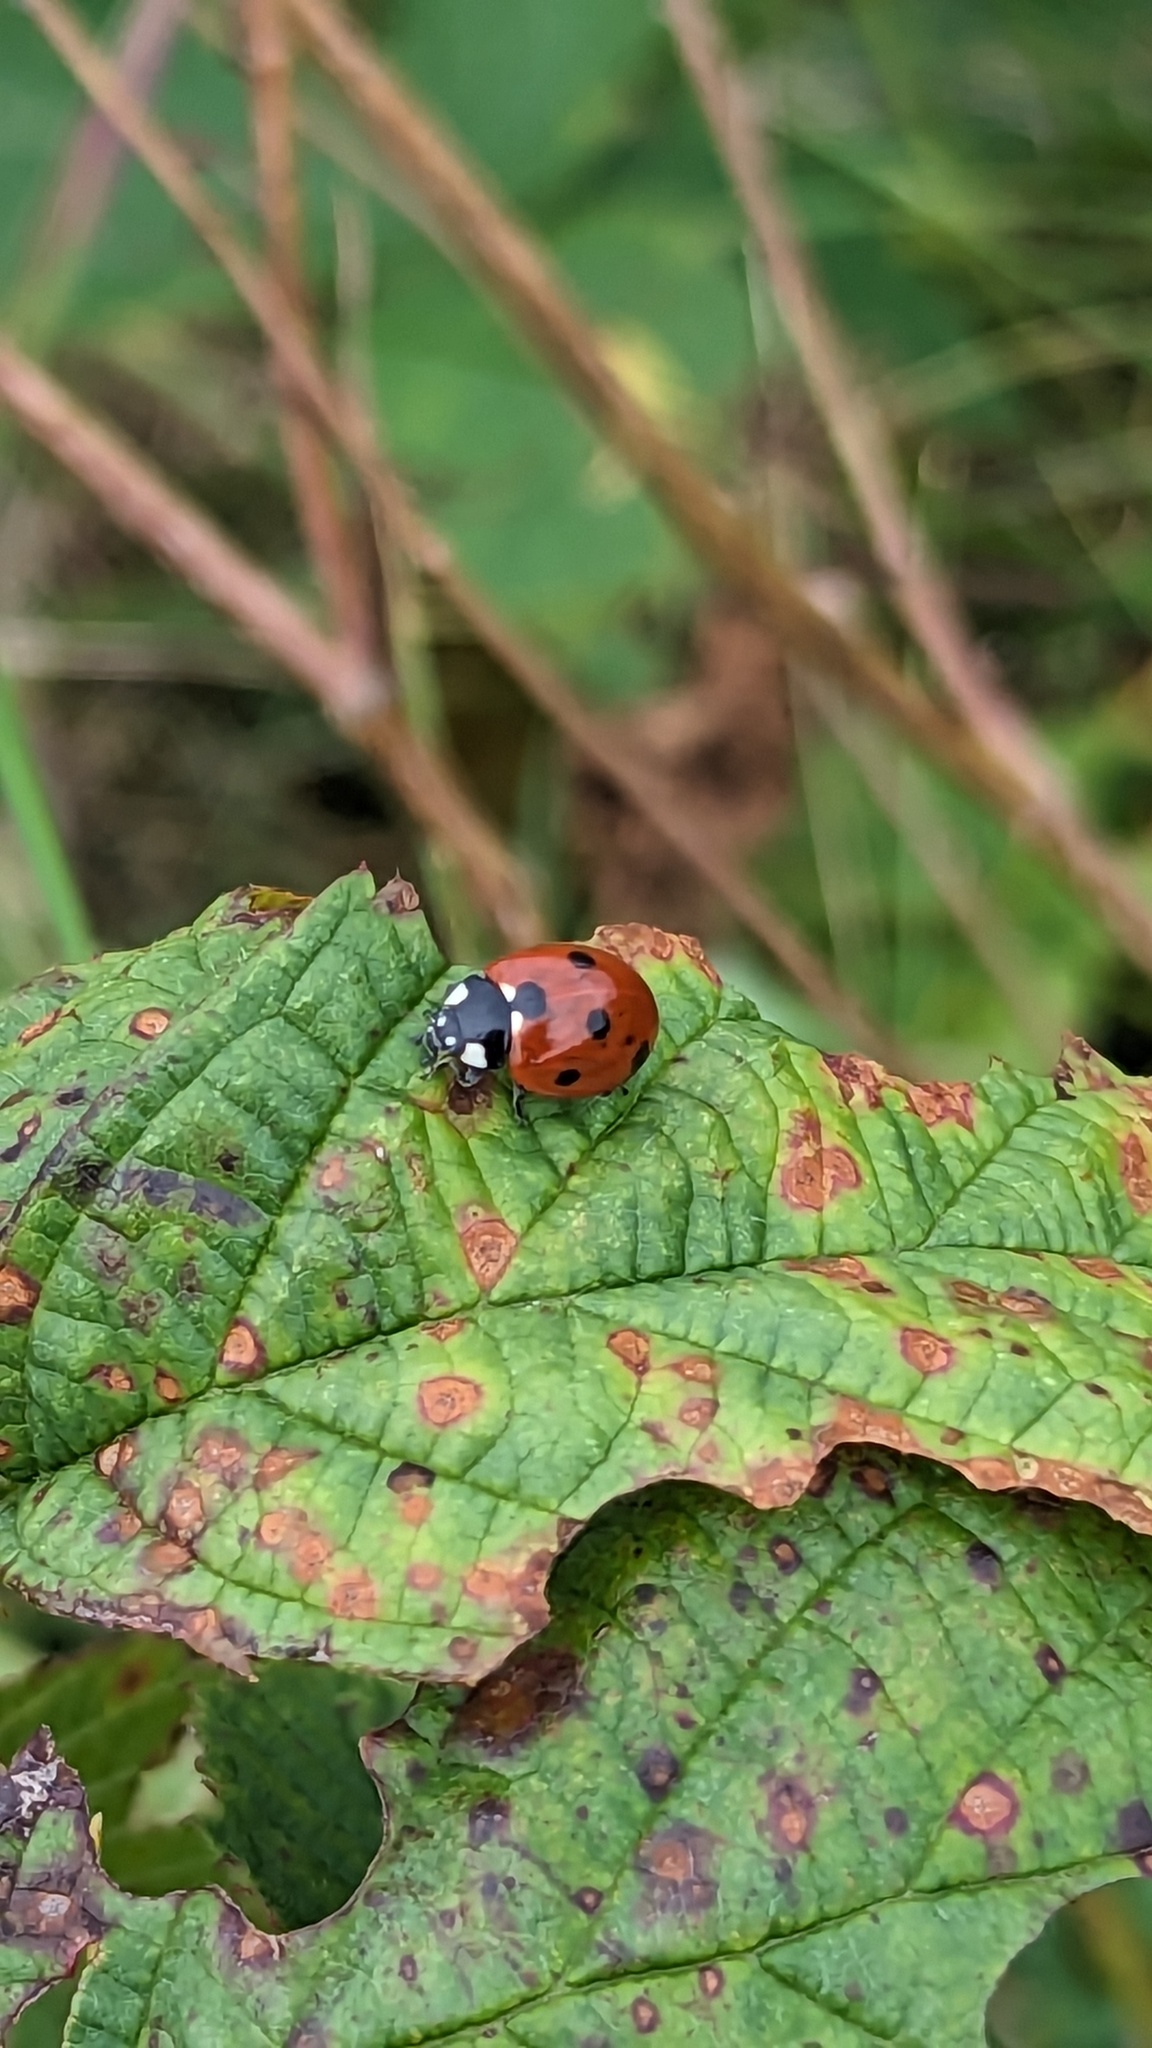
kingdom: Animalia
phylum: Arthropoda
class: Insecta
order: Coleoptera
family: Coccinellidae
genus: Coccinella
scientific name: Coccinella septempunctata
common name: Sevenspotted lady beetle
